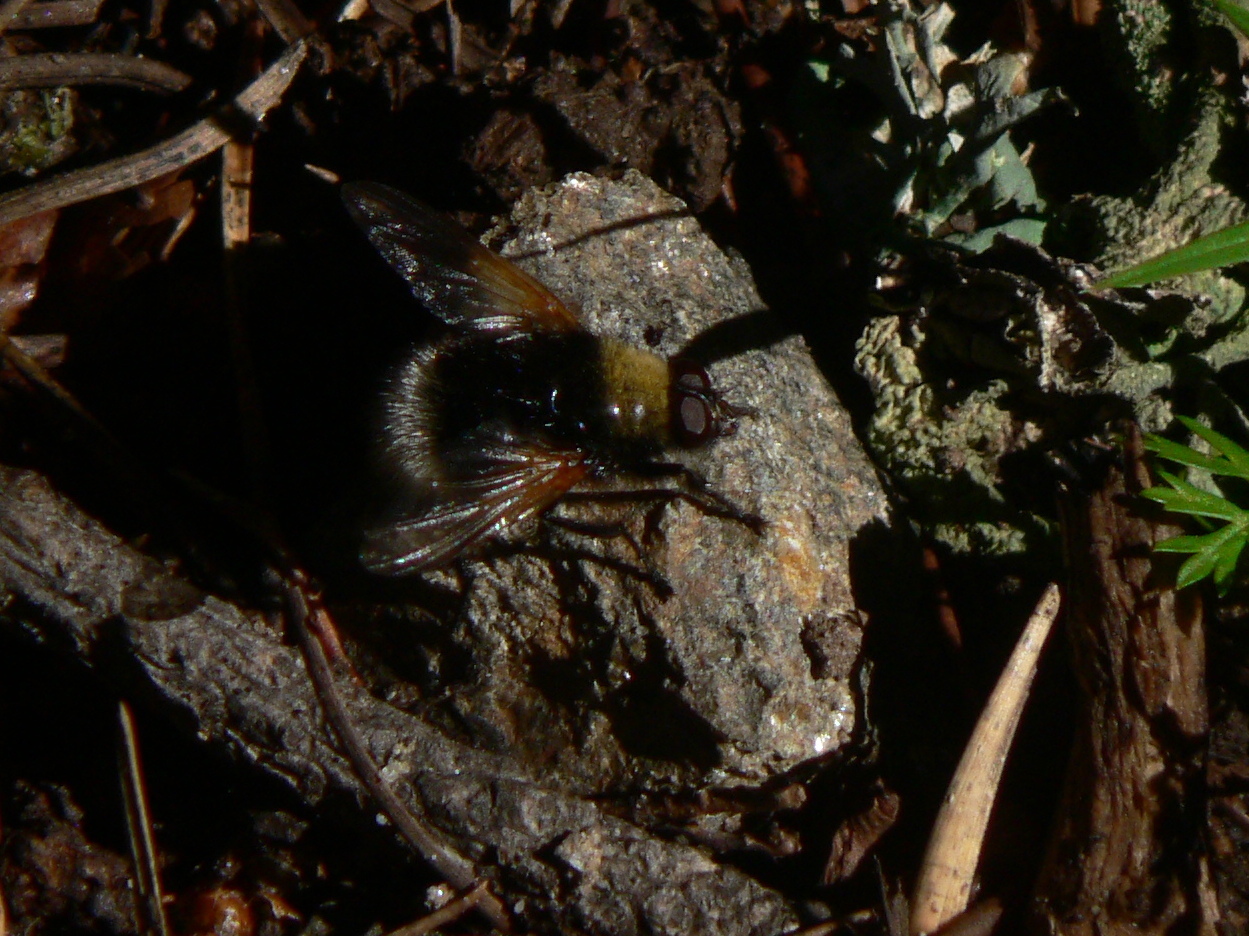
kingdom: Animalia
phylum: Arthropoda
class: Insecta
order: Diptera
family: Muscidae
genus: Mesembrina
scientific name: Mesembrina mystacea
